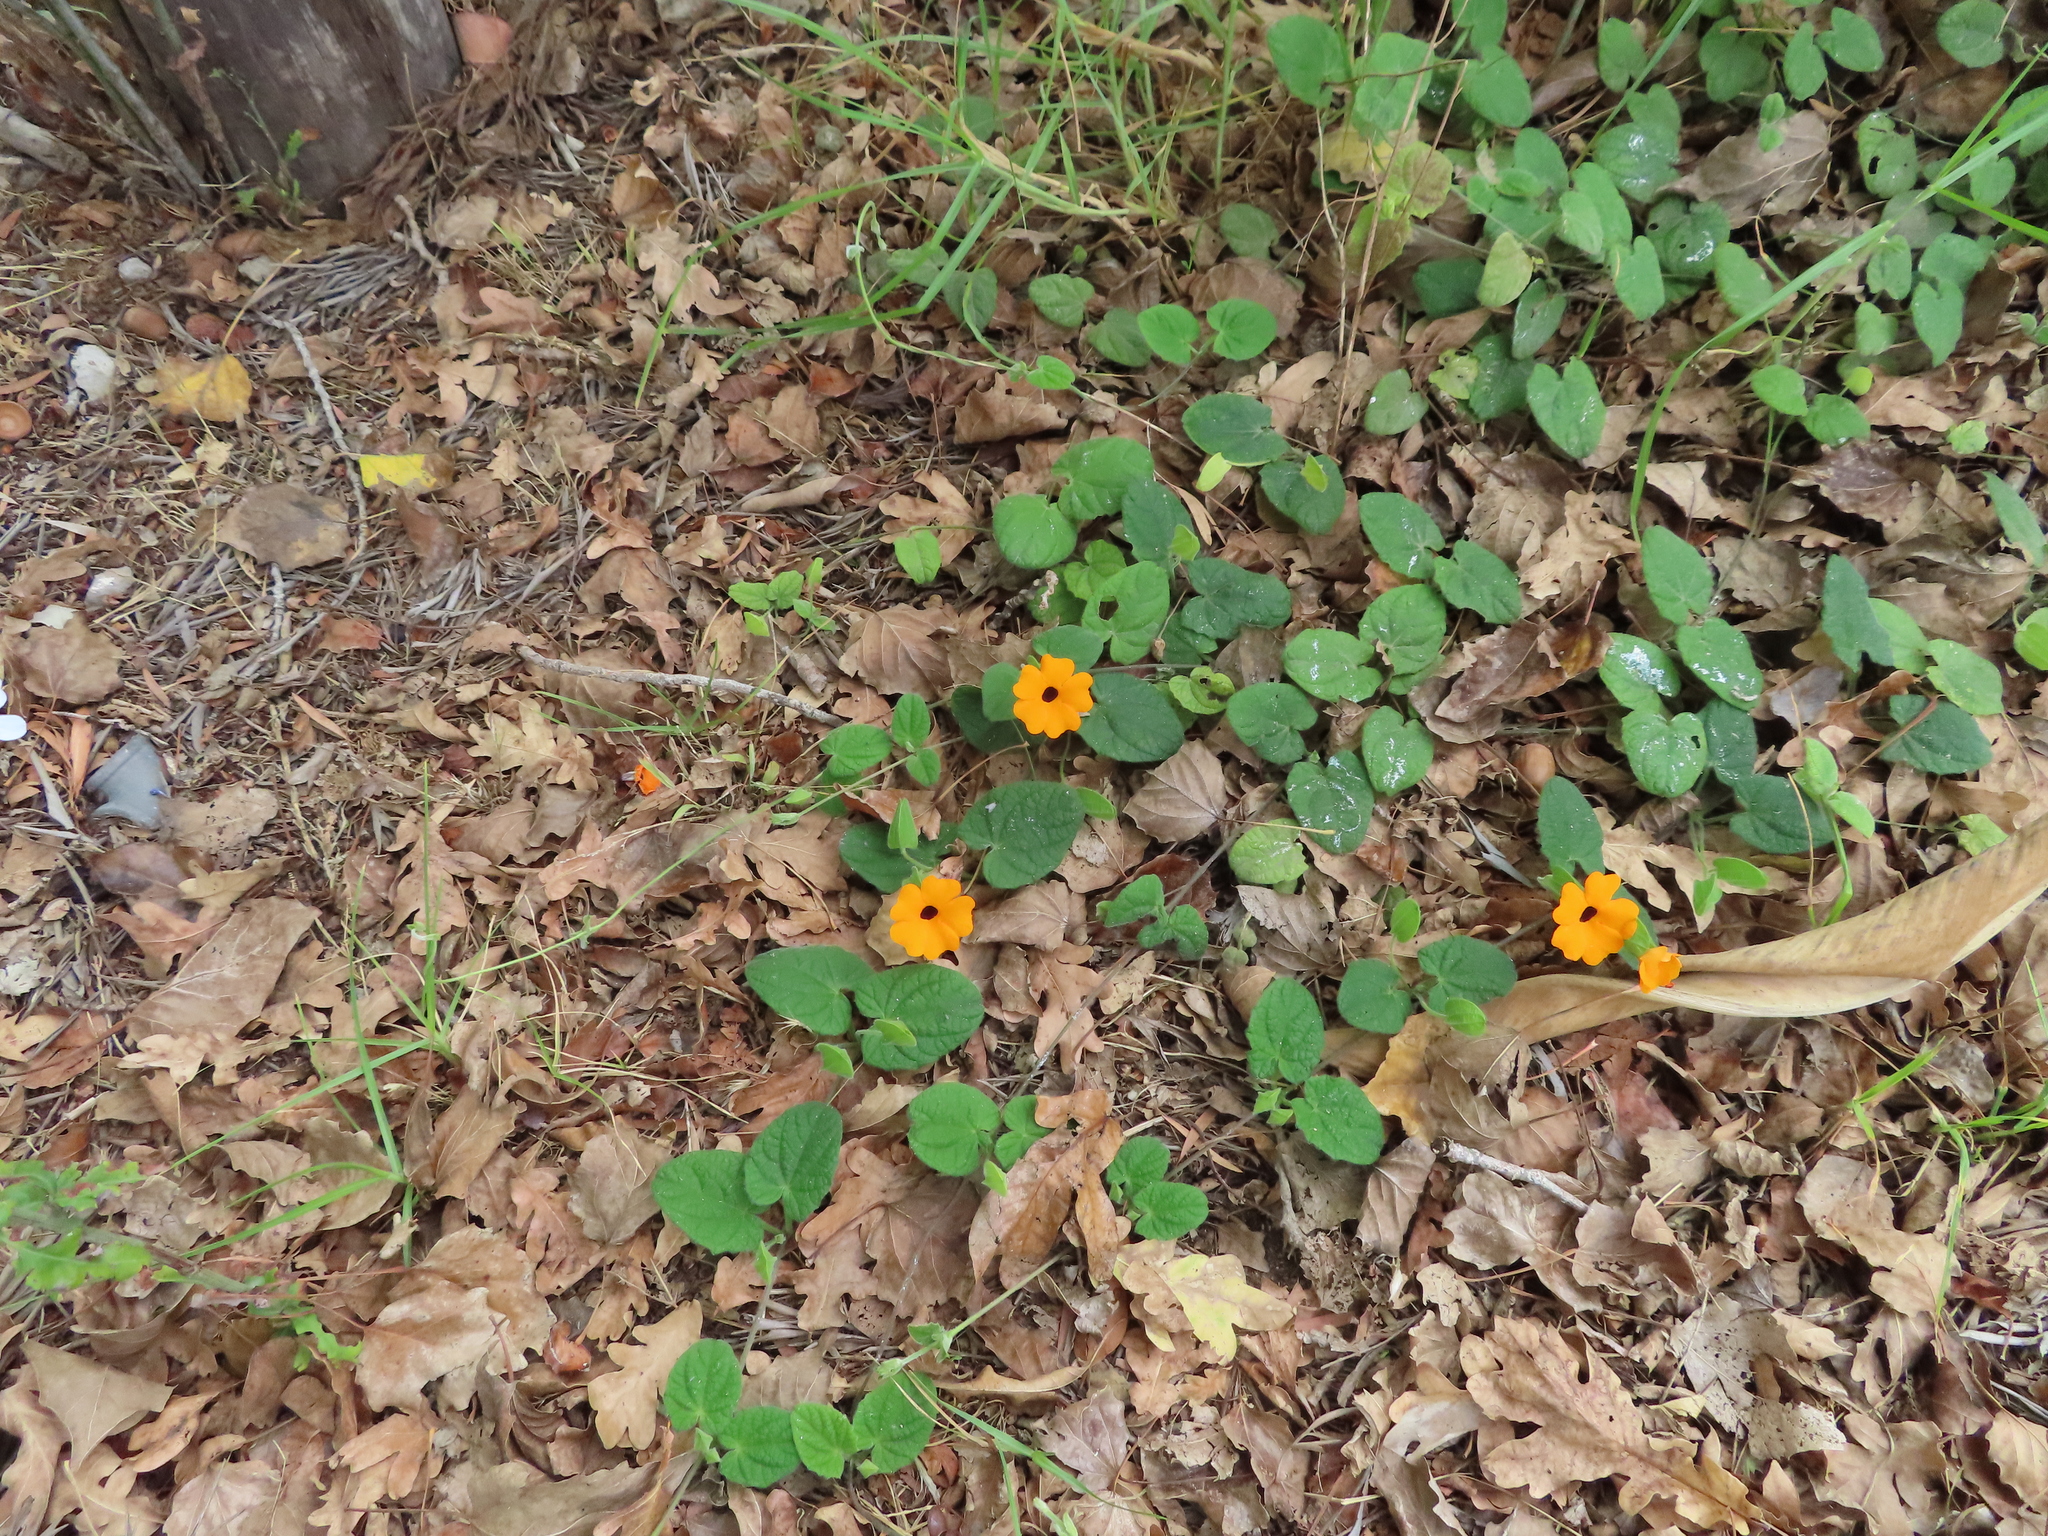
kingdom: Plantae
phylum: Tracheophyta
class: Magnoliopsida
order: Lamiales
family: Acanthaceae
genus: Thunbergia
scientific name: Thunbergia alata
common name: Blackeyed susan vine
